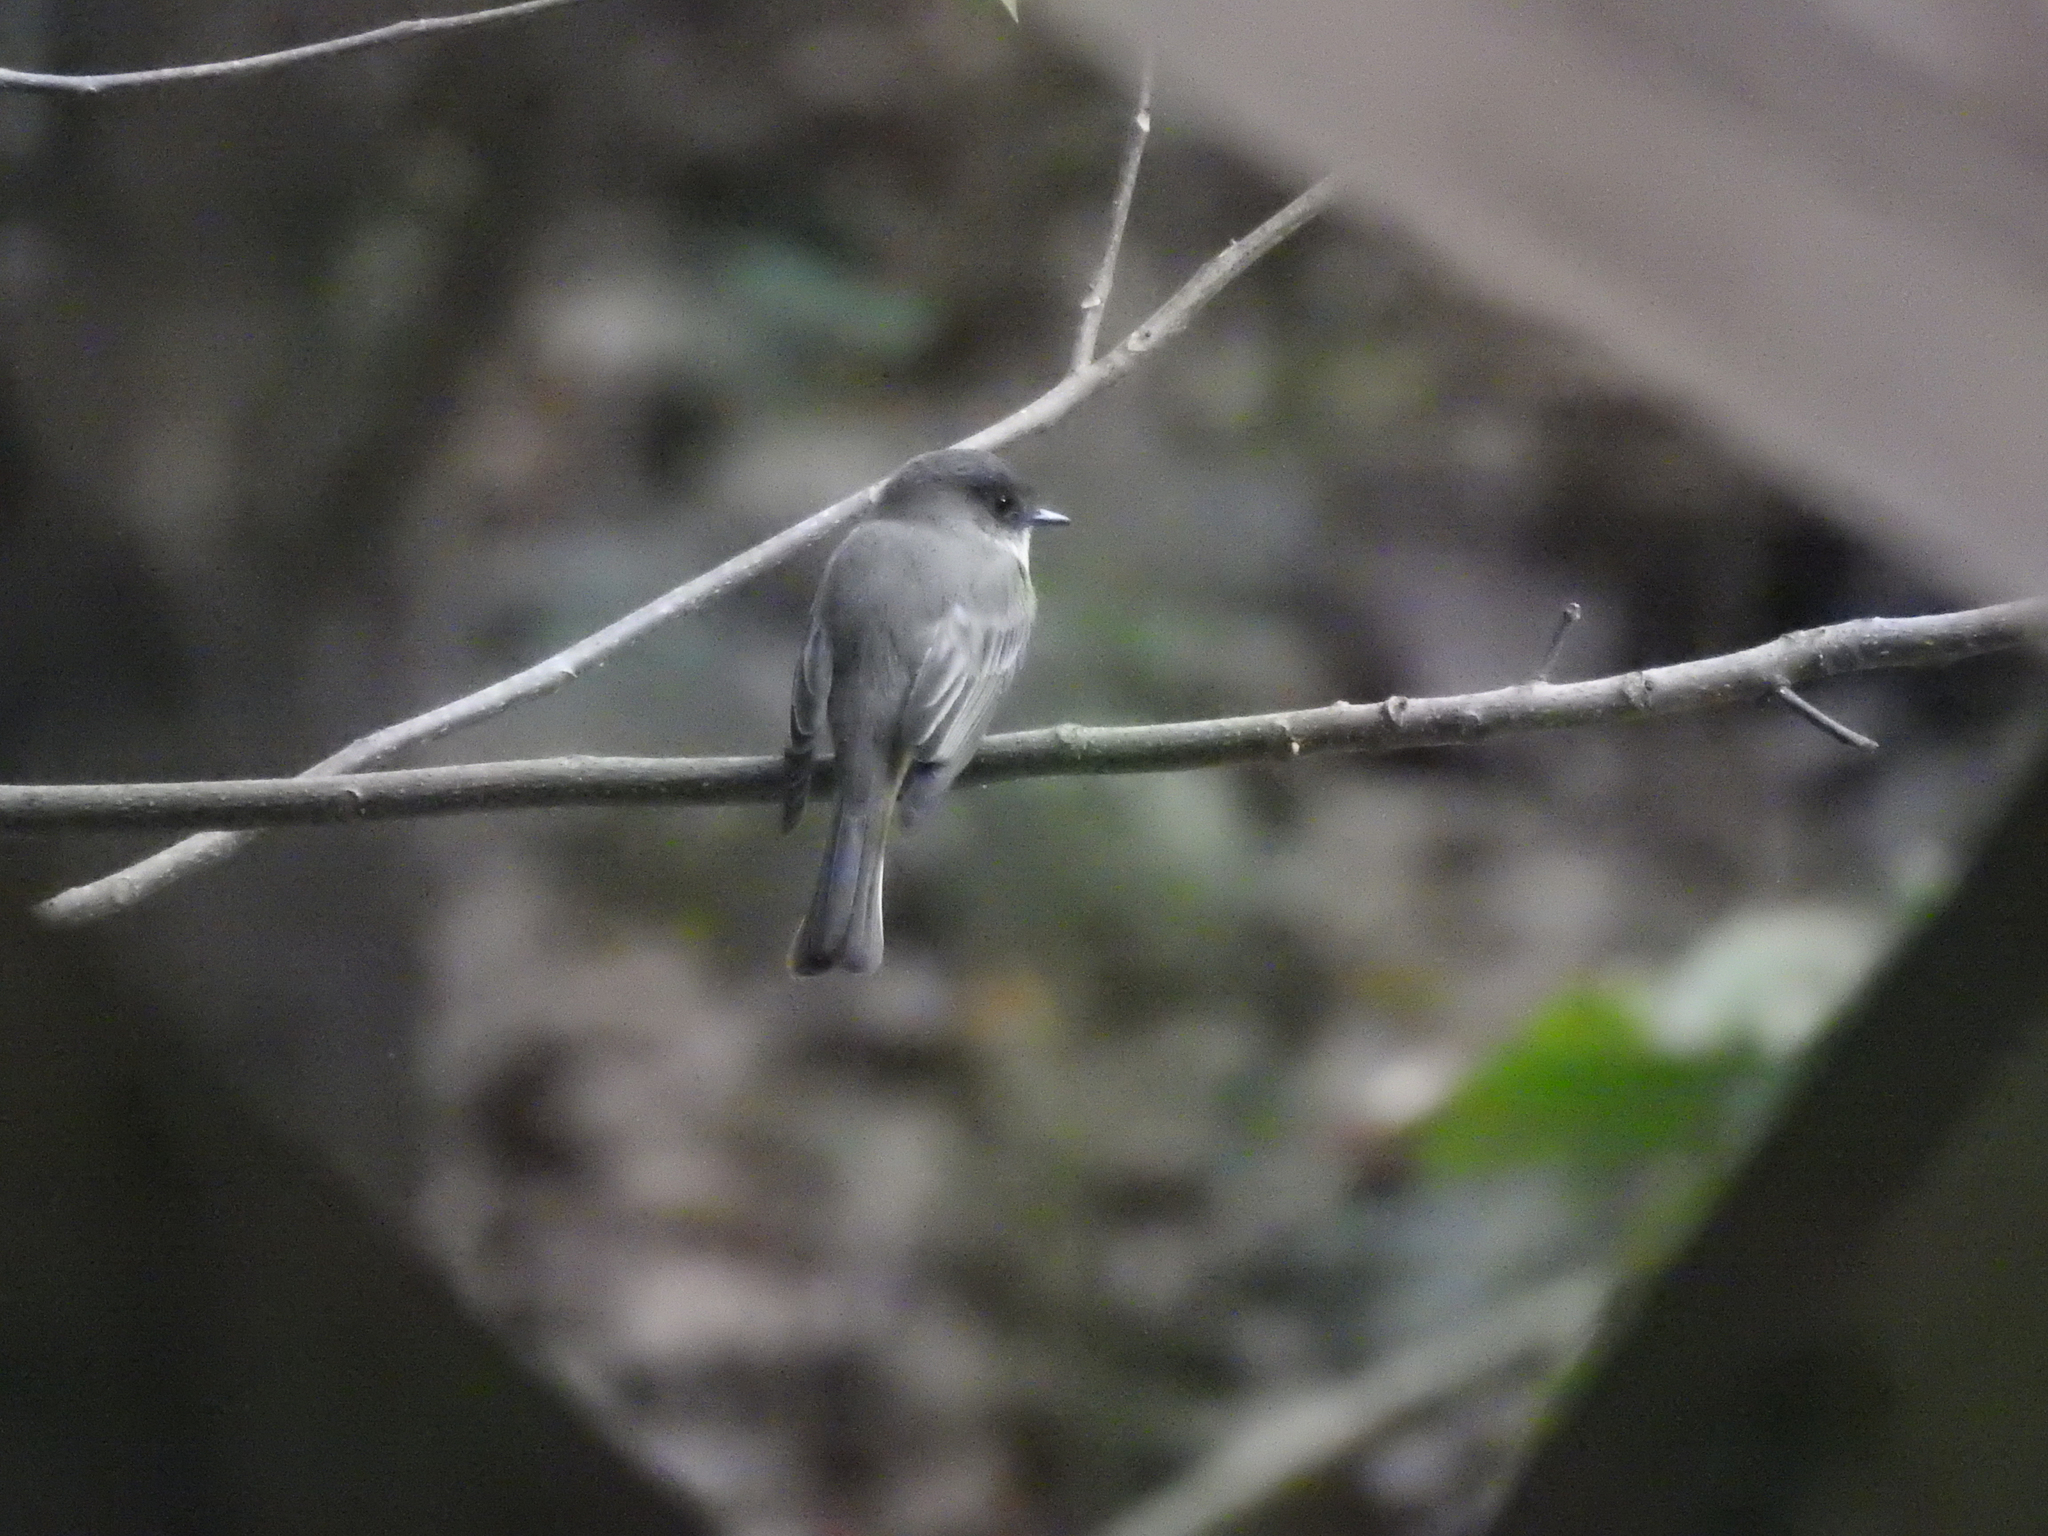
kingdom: Animalia
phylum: Chordata
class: Aves
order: Passeriformes
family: Tyrannidae
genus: Sayornis
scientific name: Sayornis phoebe
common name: Eastern phoebe
